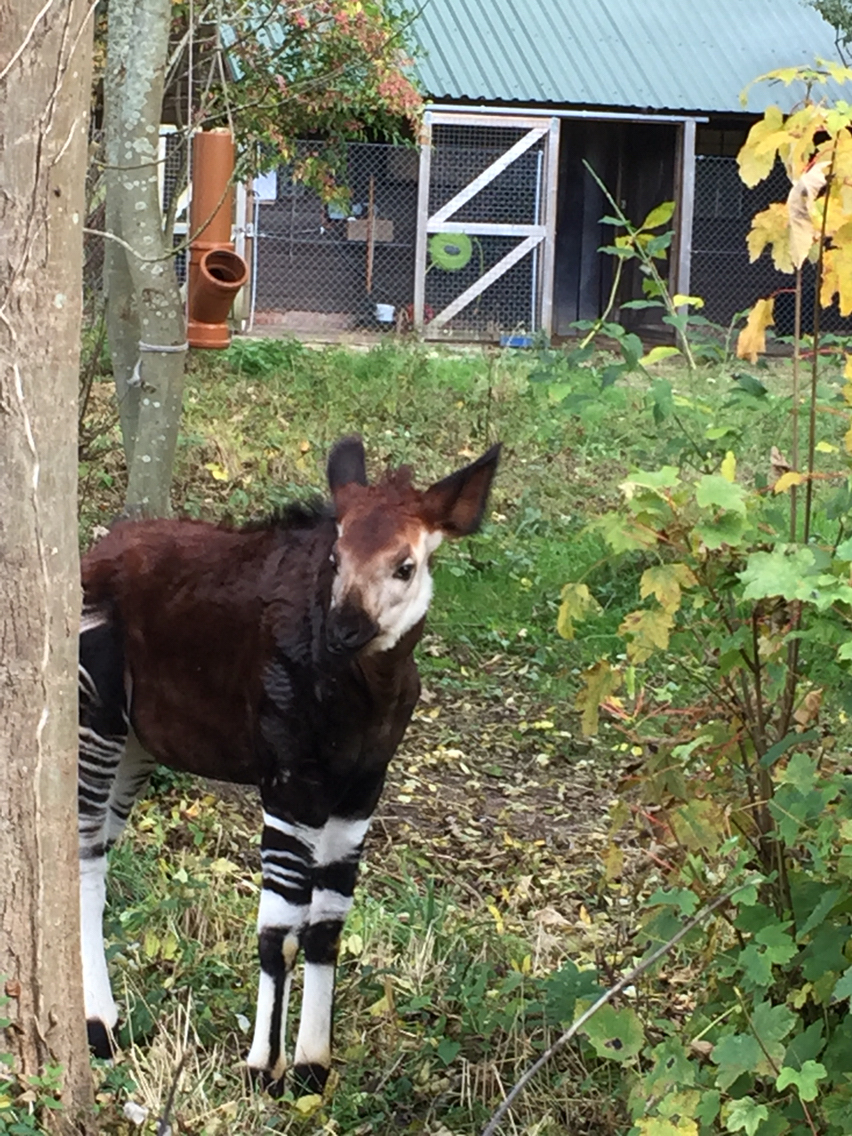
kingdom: Plantae
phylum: Tracheophyta
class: Magnoliopsida
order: Sapindales
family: Sapindaceae
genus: Acer
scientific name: Acer pseudoplatanus
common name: Sycamore
